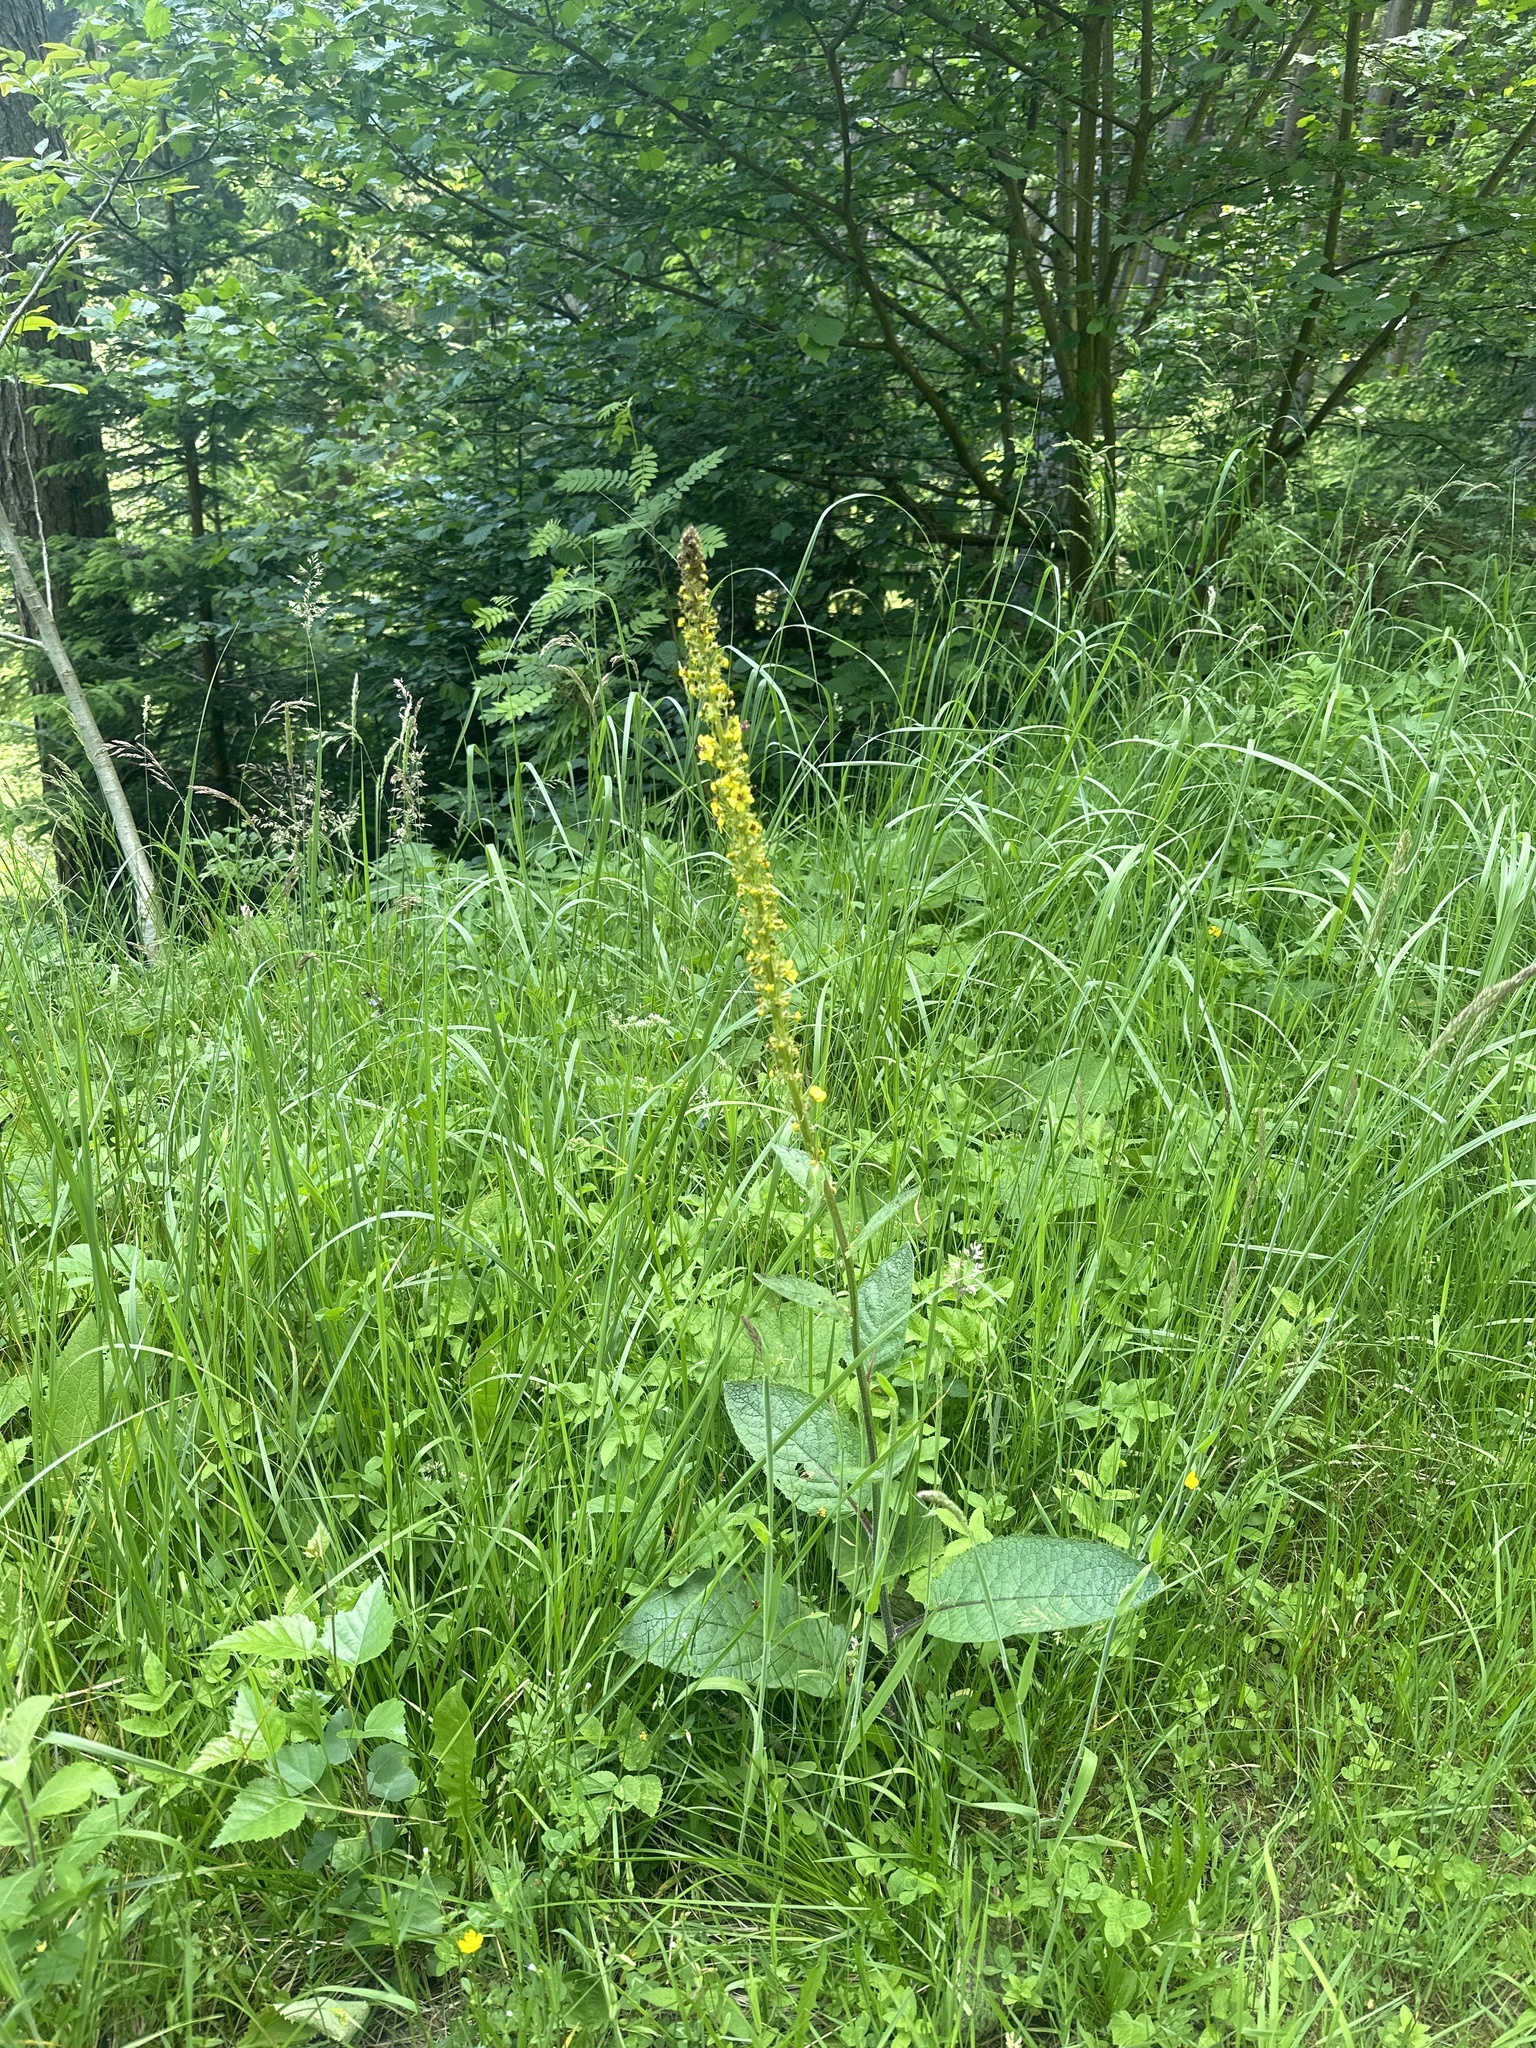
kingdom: Plantae
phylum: Tracheophyta
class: Magnoliopsida
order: Lamiales
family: Scrophulariaceae
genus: Verbascum
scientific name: Verbascum nigrum
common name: Dark mullein
